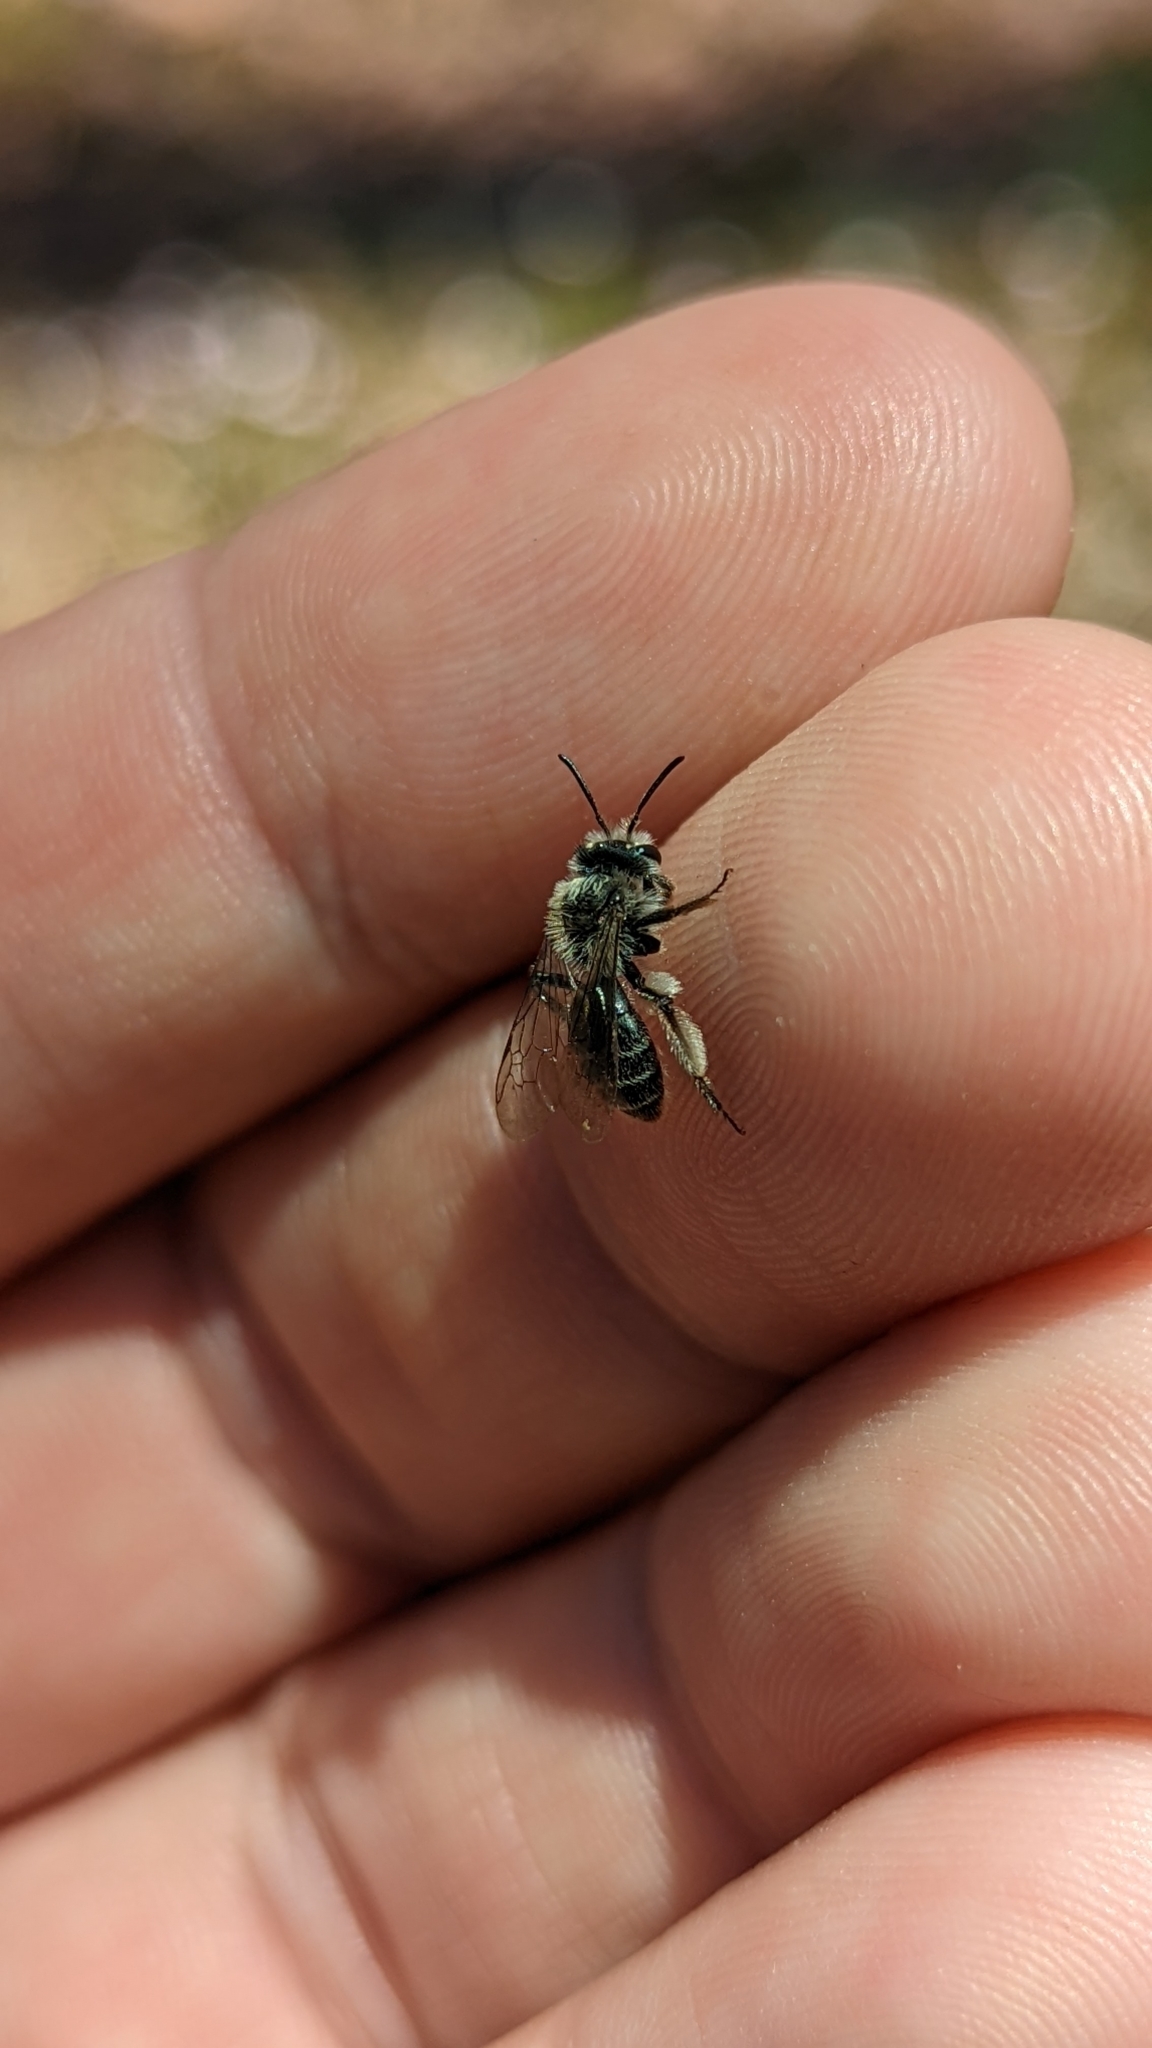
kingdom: Animalia
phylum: Arthropoda
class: Insecta
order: Hymenoptera
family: Andrenidae
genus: Andrena
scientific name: Andrena erigeniae
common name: Spring beauty miner
